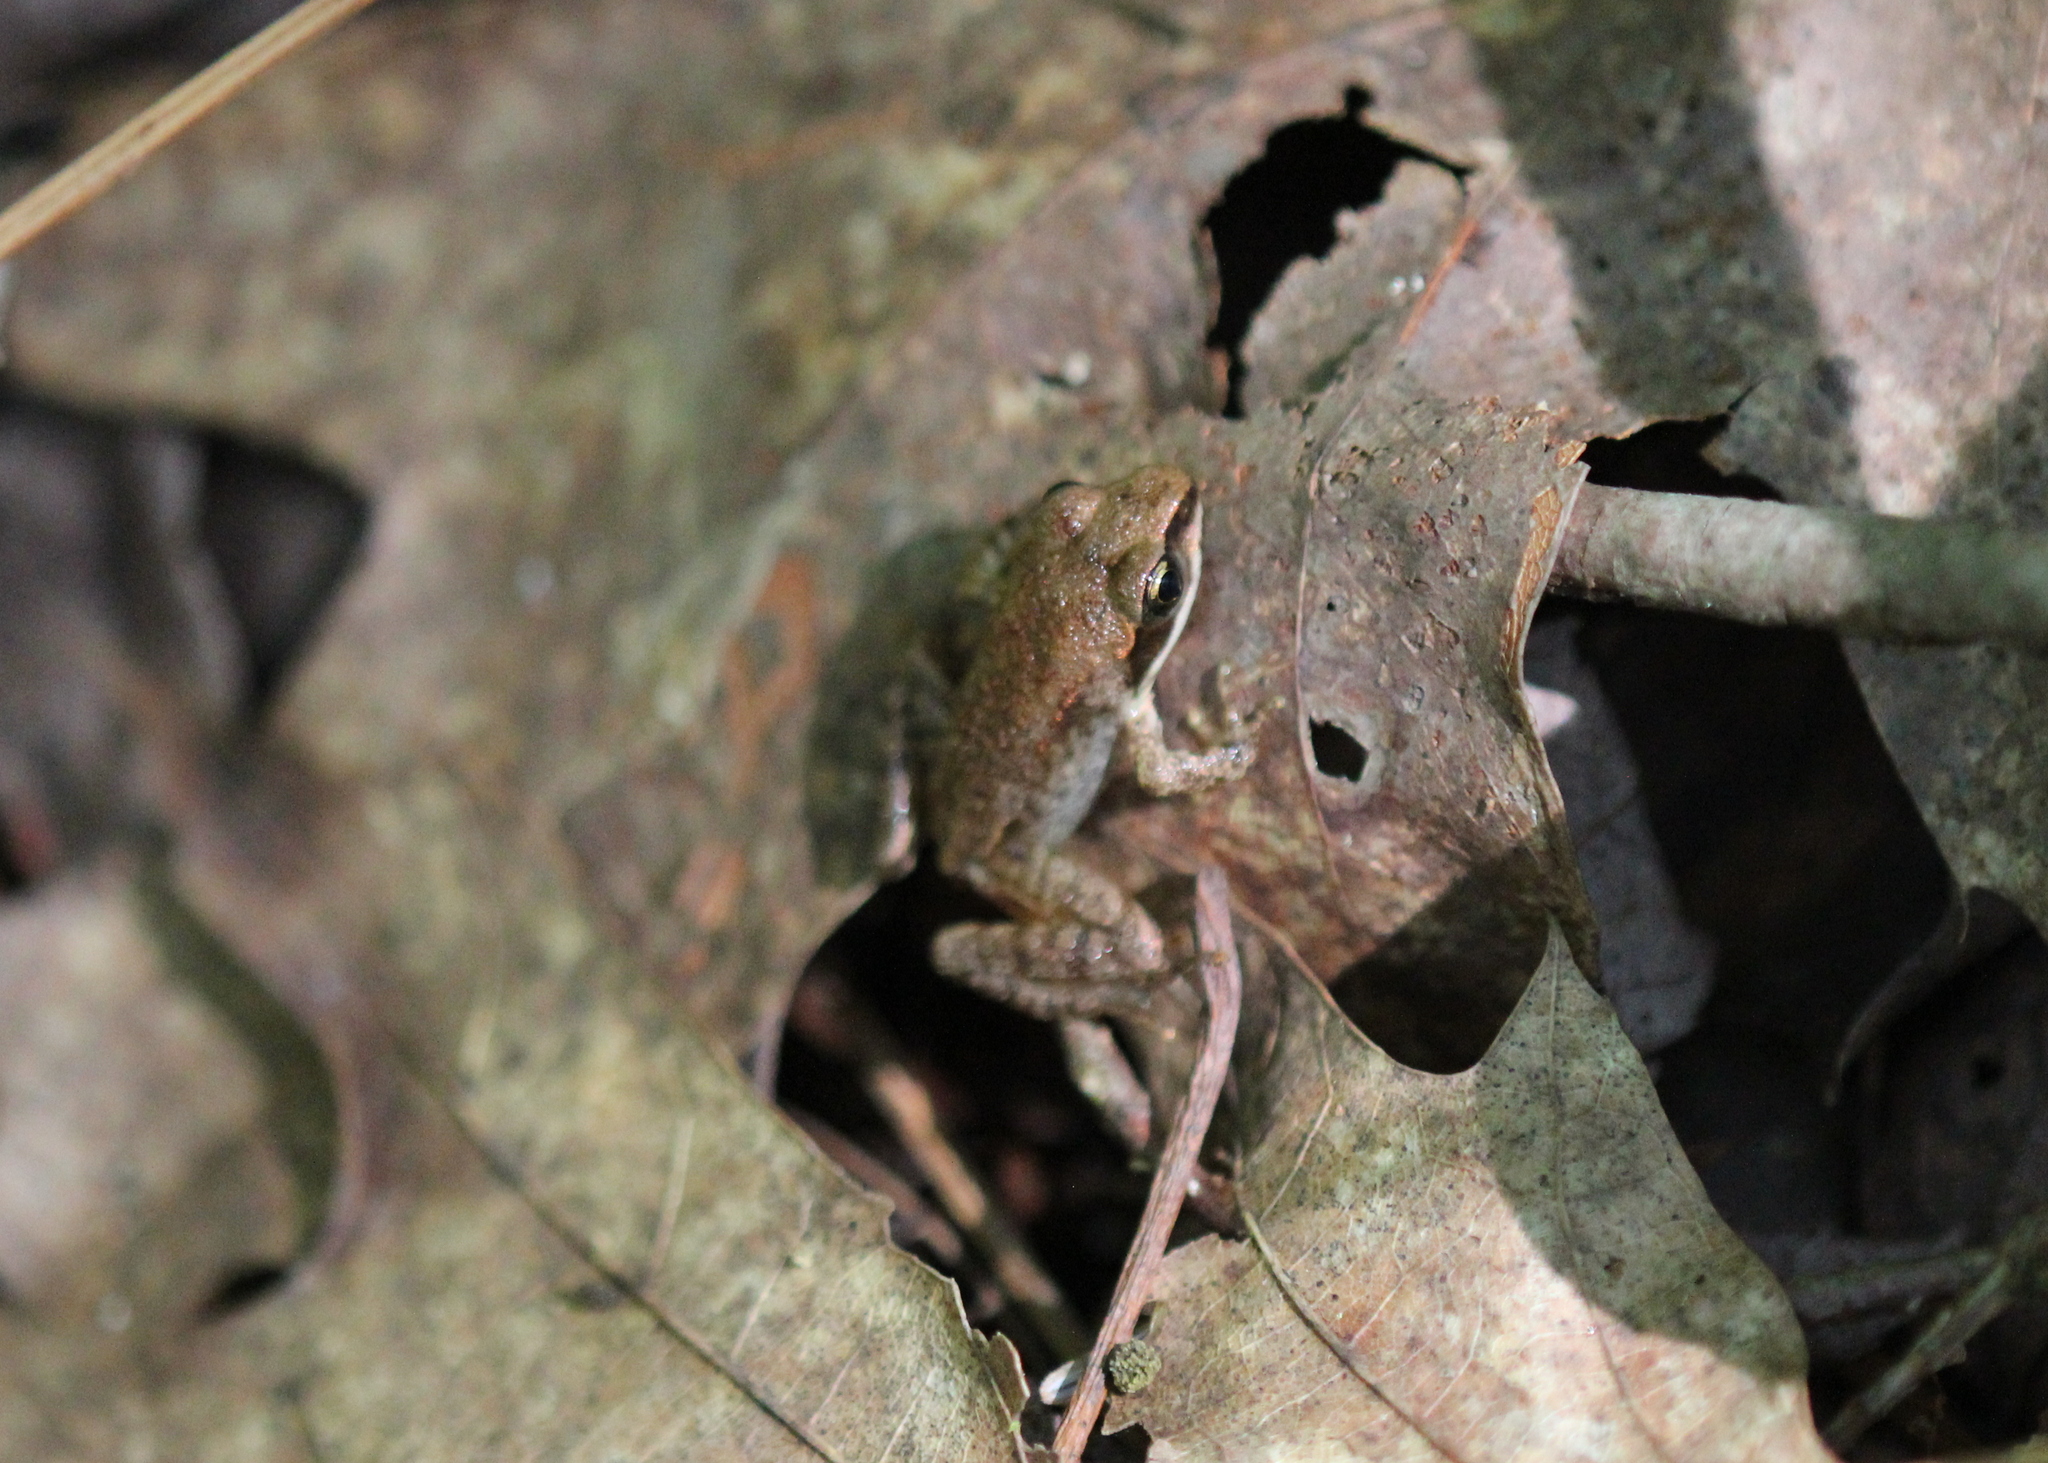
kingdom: Animalia
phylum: Chordata
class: Amphibia
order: Anura
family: Ranidae
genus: Lithobates
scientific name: Lithobates sylvaticus
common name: Wood frog
